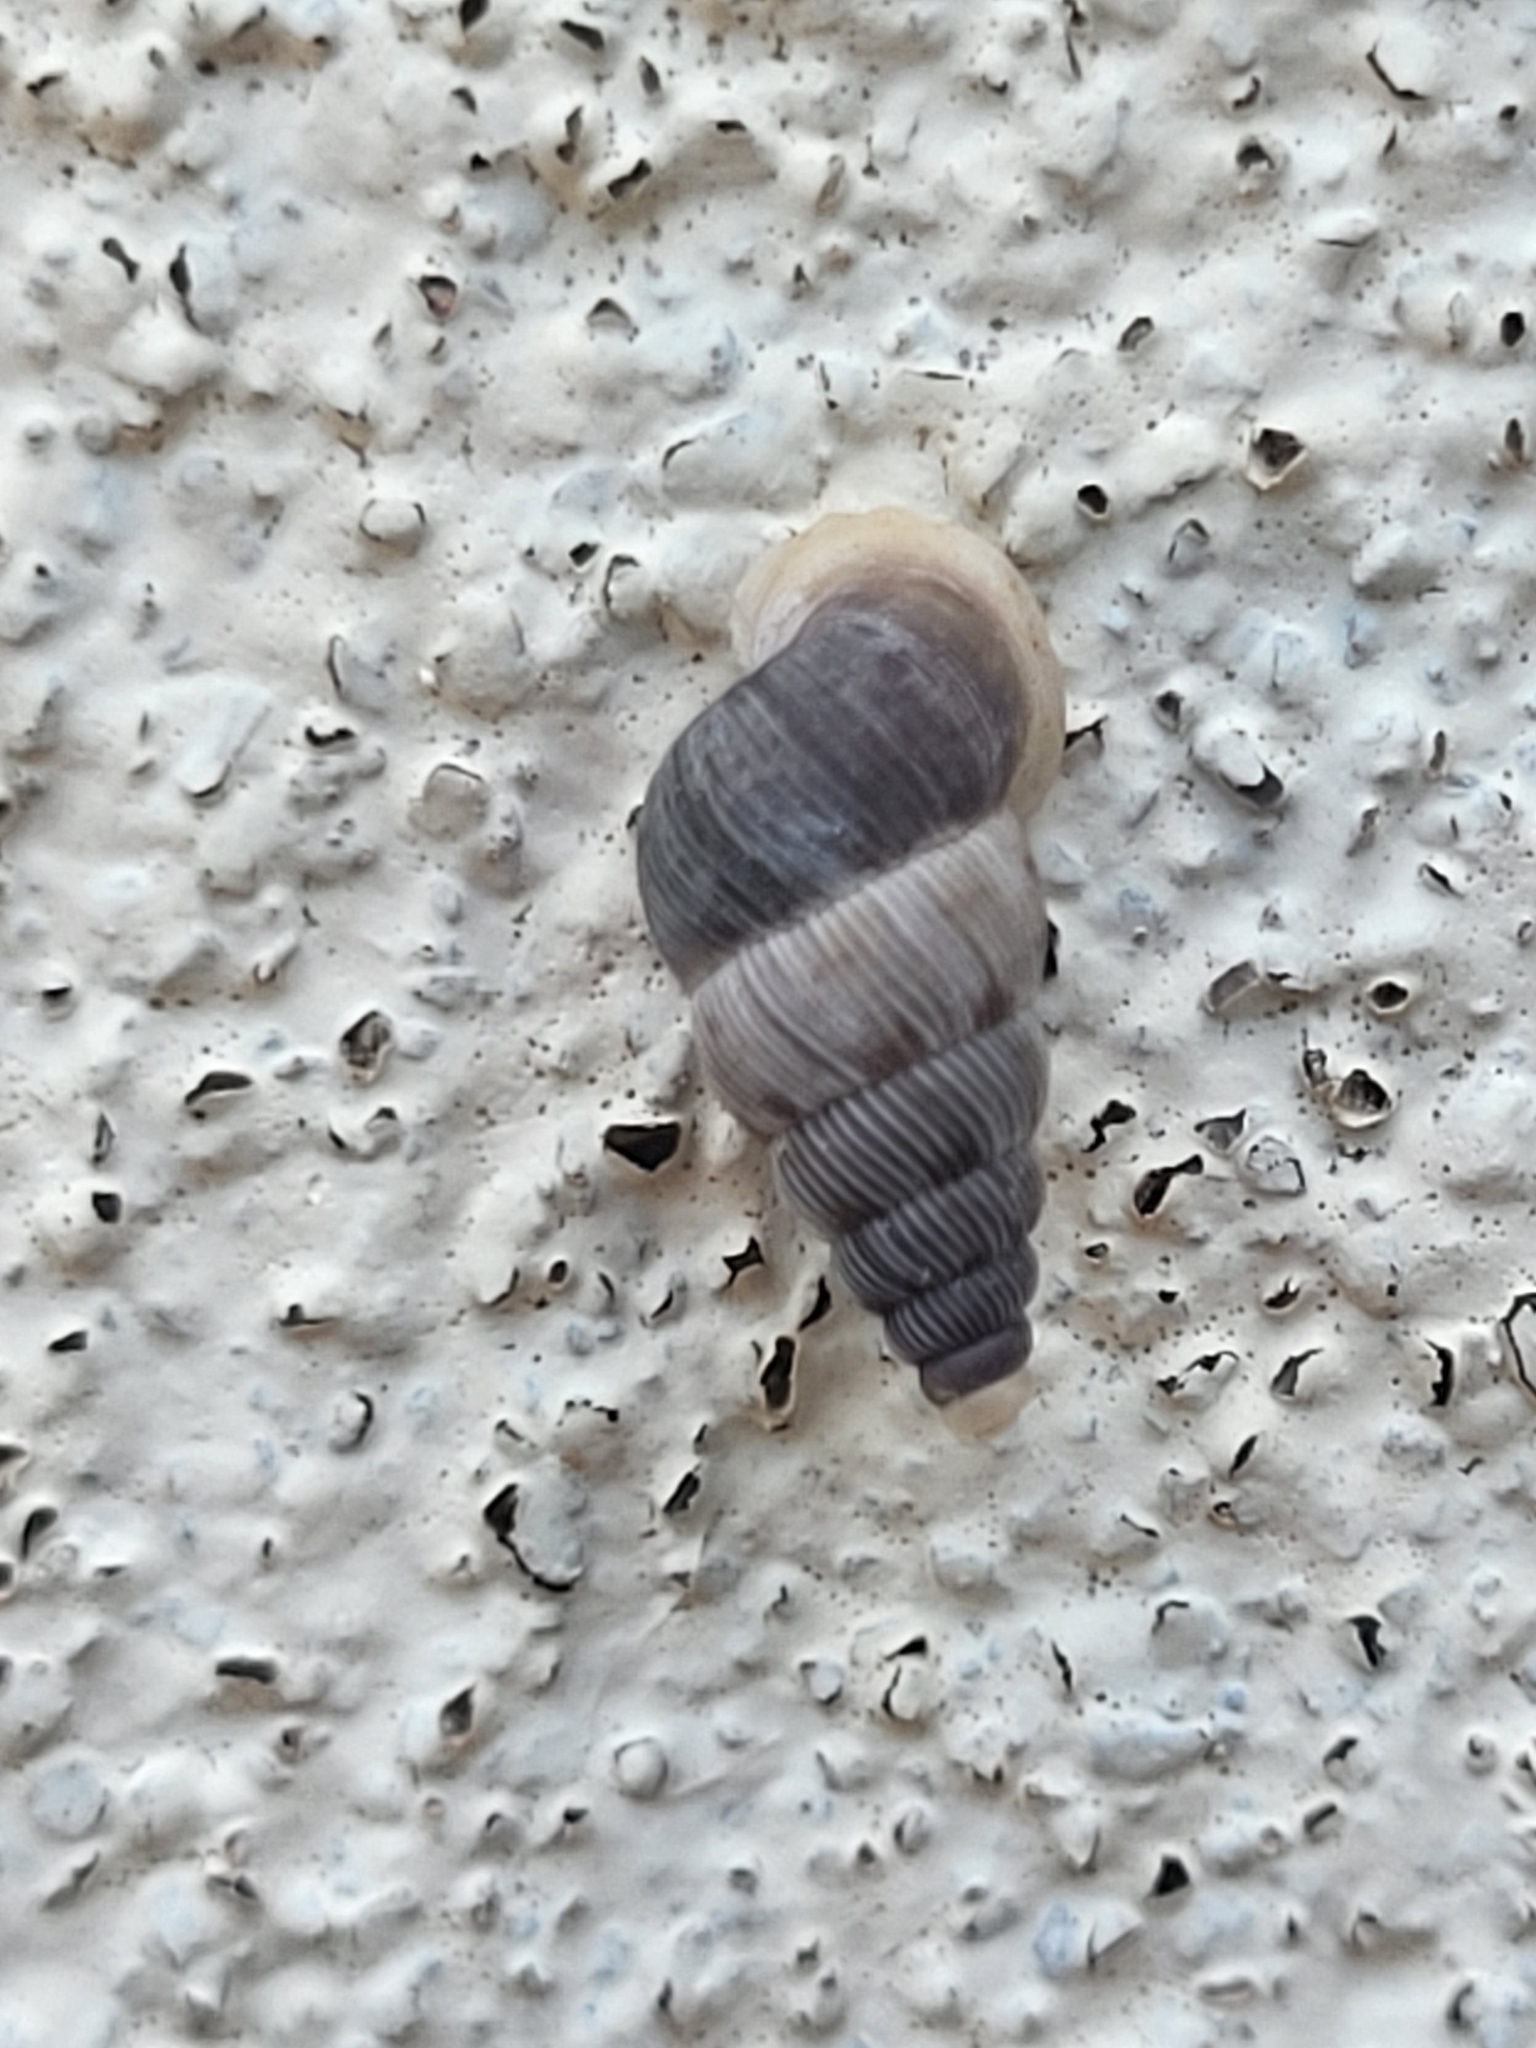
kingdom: Animalia
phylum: Mollusca
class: Gastropoda
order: Architaenioglossa
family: Cochlostomatidae
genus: Cochlostoma
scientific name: Cochlostoma tessellatum
